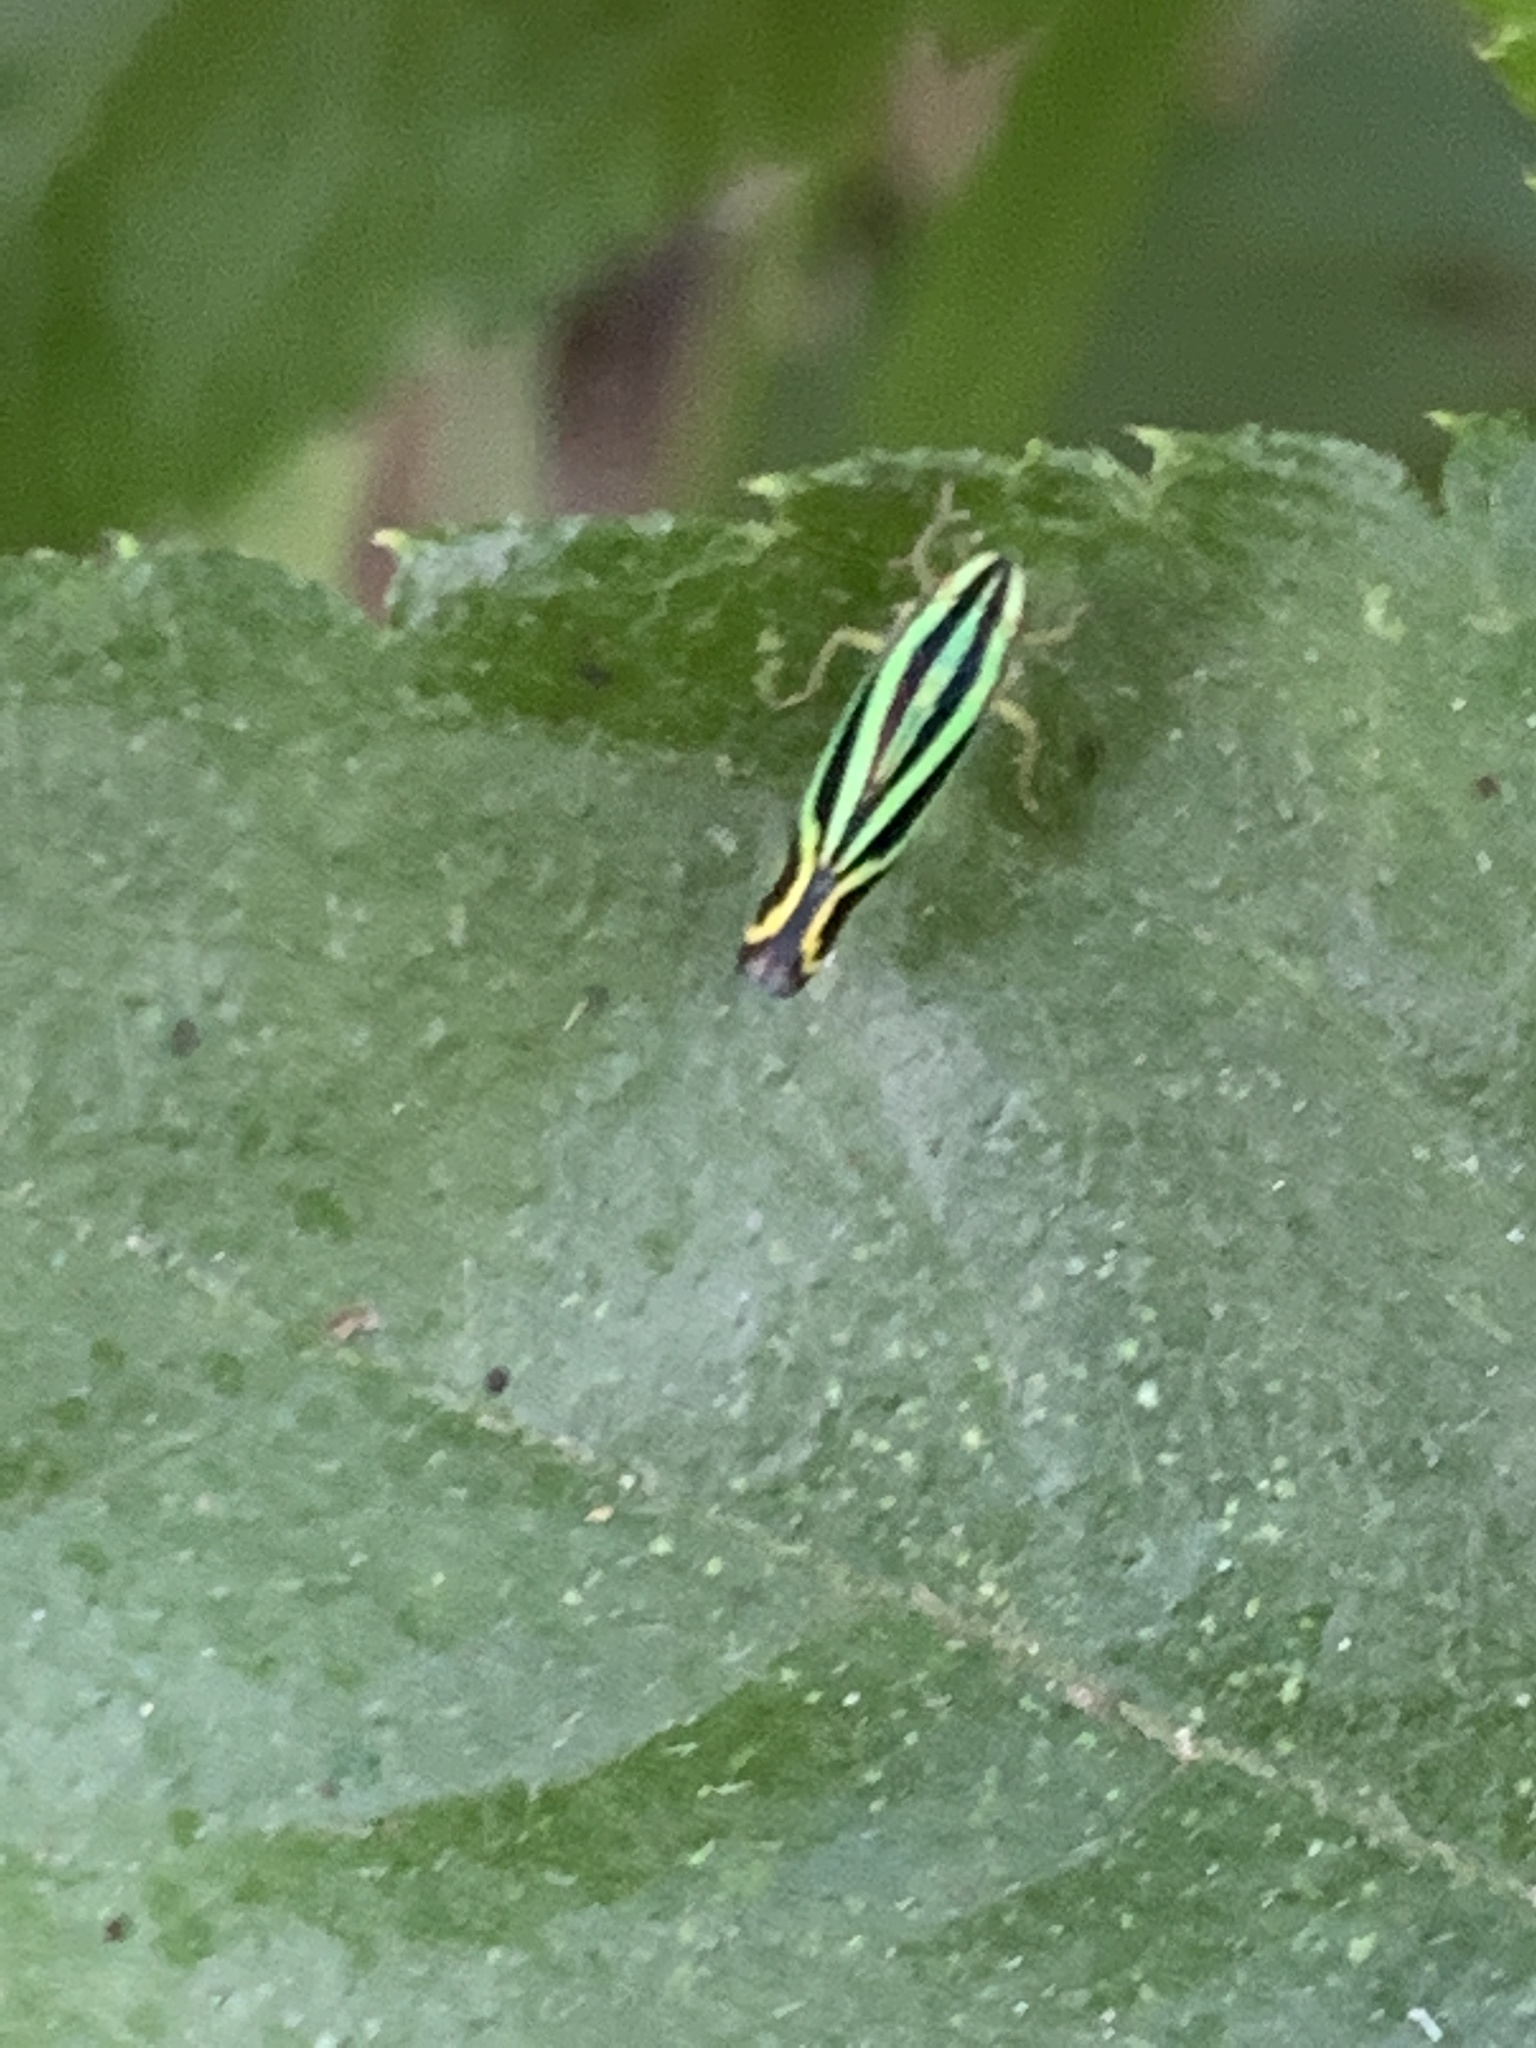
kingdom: Animalia
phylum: Arthropoda
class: Insecta
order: Hemiptera
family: Cicadellidae
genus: Sibovia
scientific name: Sibovia sagata
